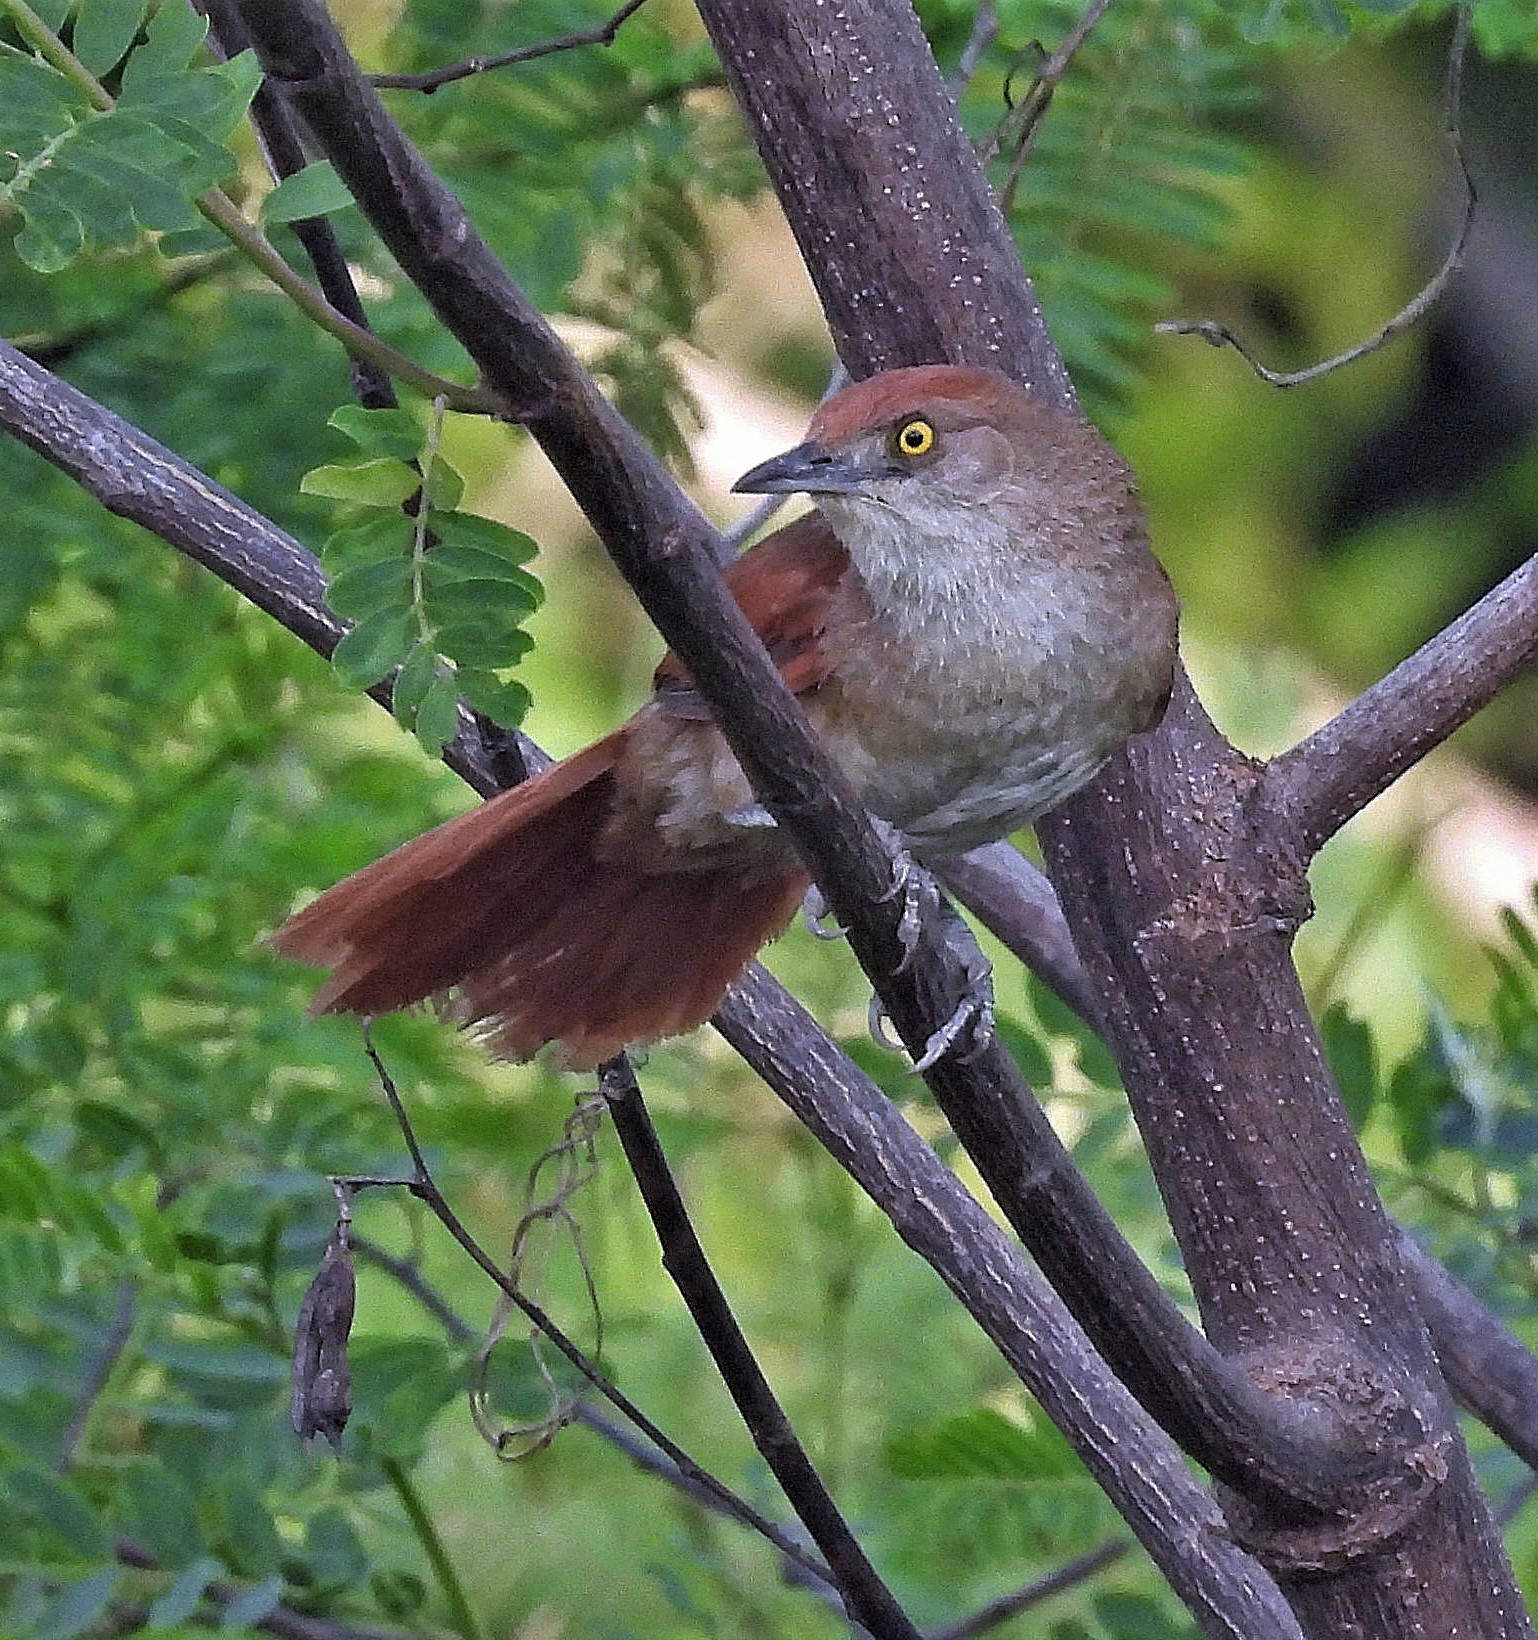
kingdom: Animalia
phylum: Chordata
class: Aves
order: Passeriformes
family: Furnariidae
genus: Phacellodomus
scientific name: Phacellodomus ruber
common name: Greater thornbird
